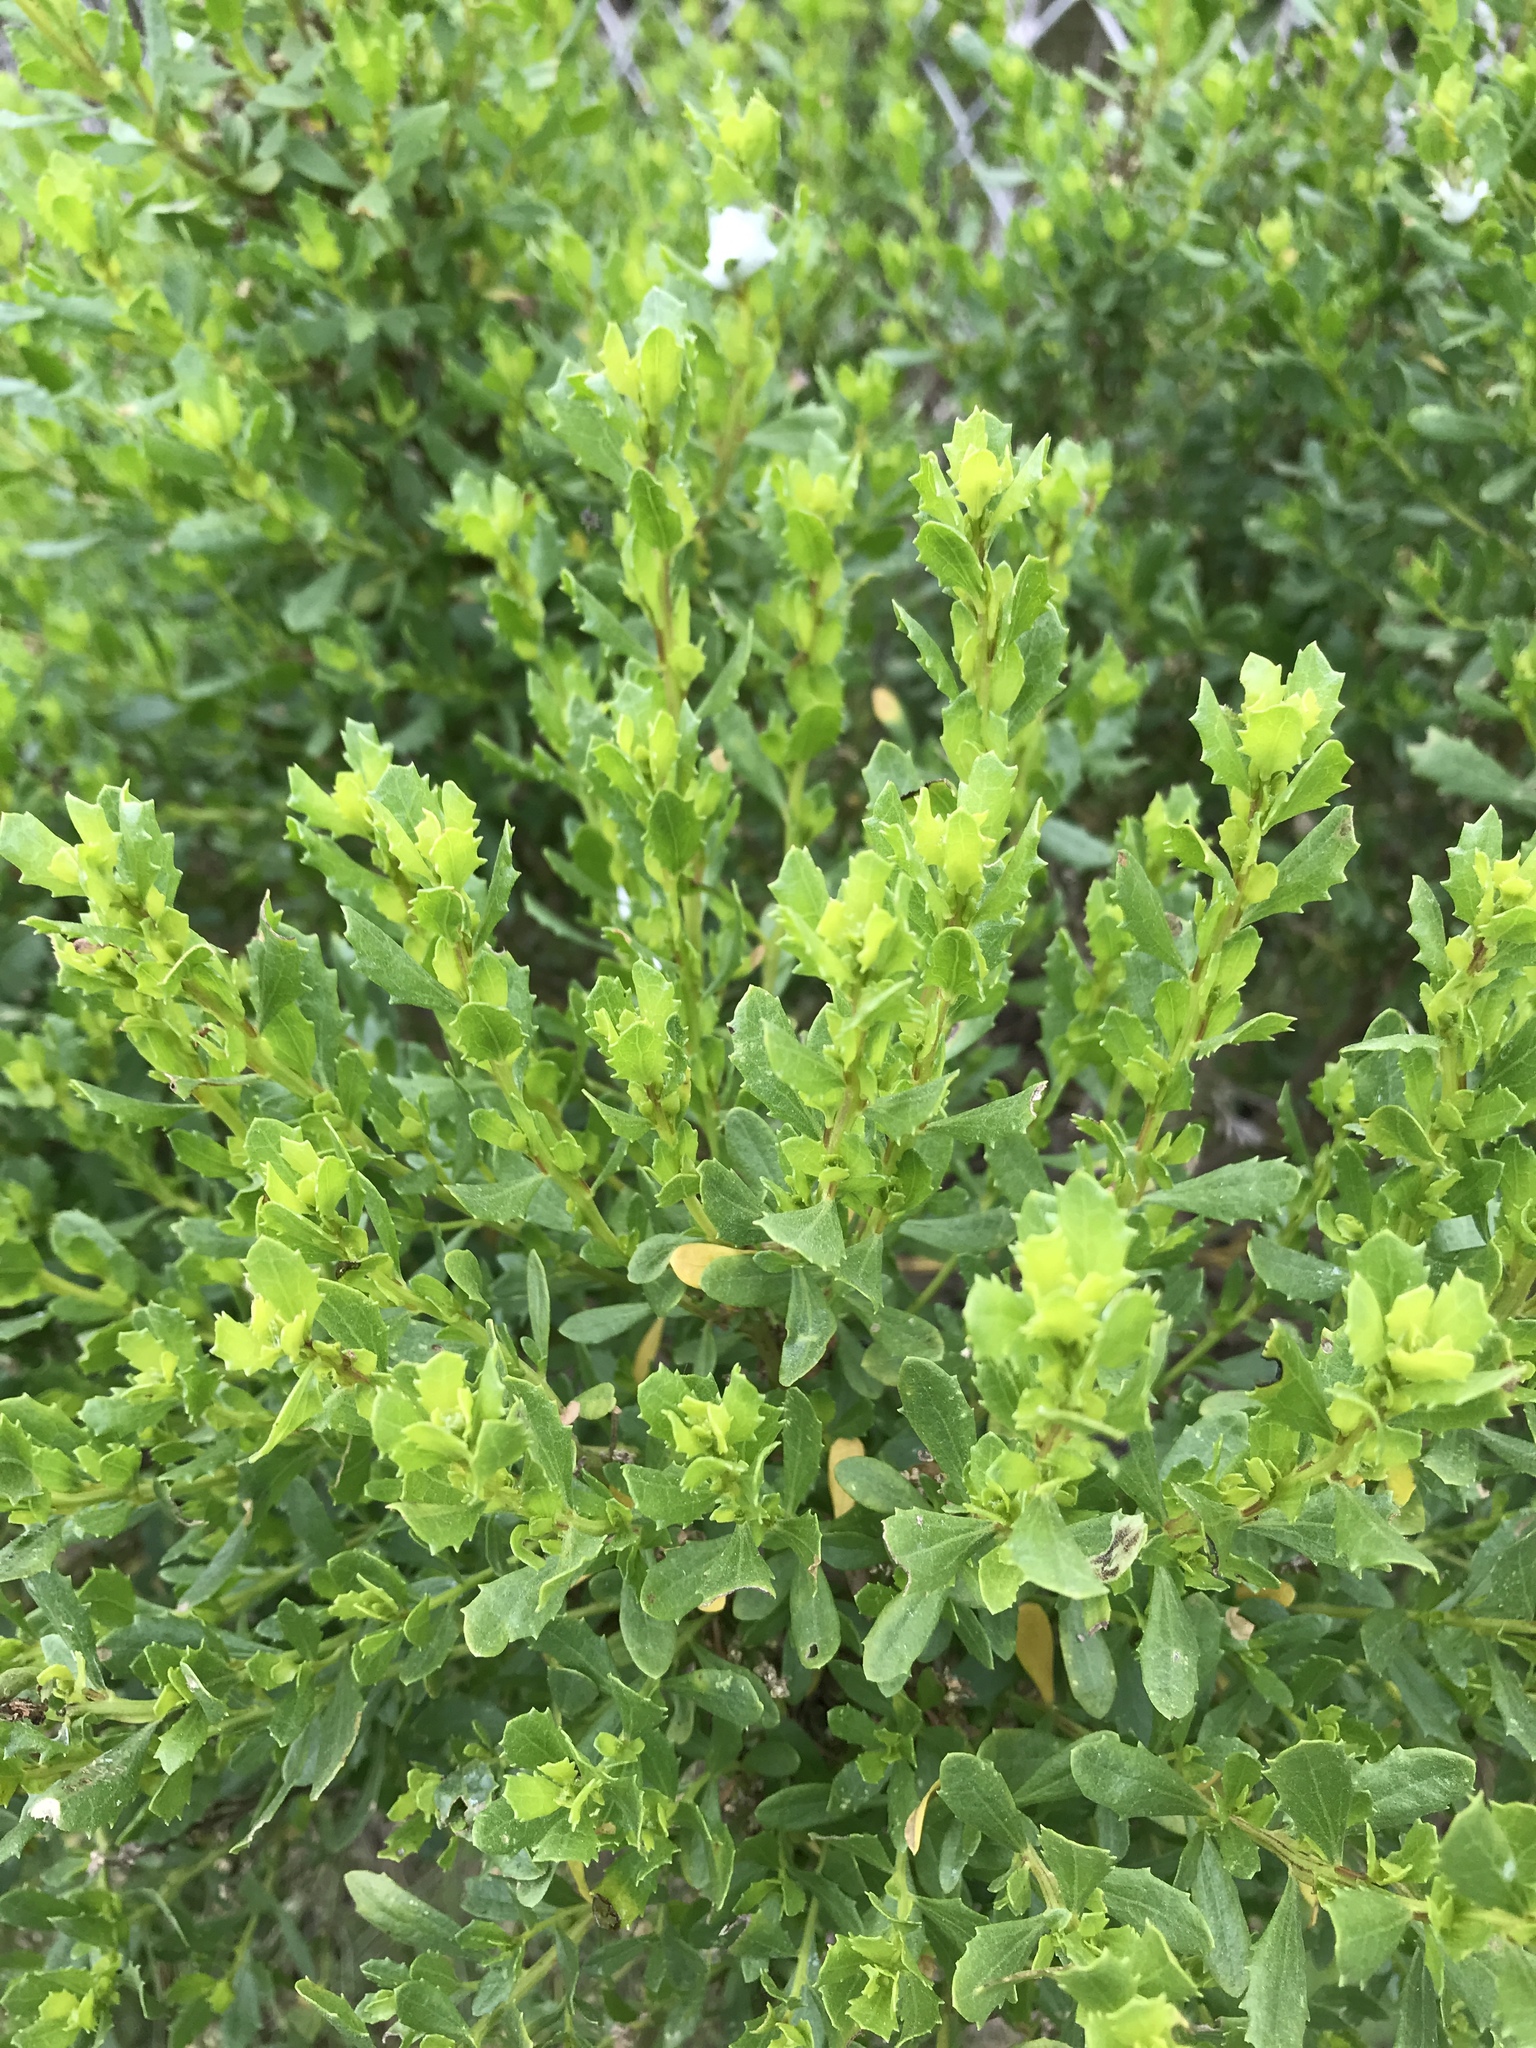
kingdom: Plantae
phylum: Tracheophyta
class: Magnoliopsida
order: Asterales
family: Asteraceae
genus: Baccharis
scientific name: Baccharis pilularis
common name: Coyotebrush
